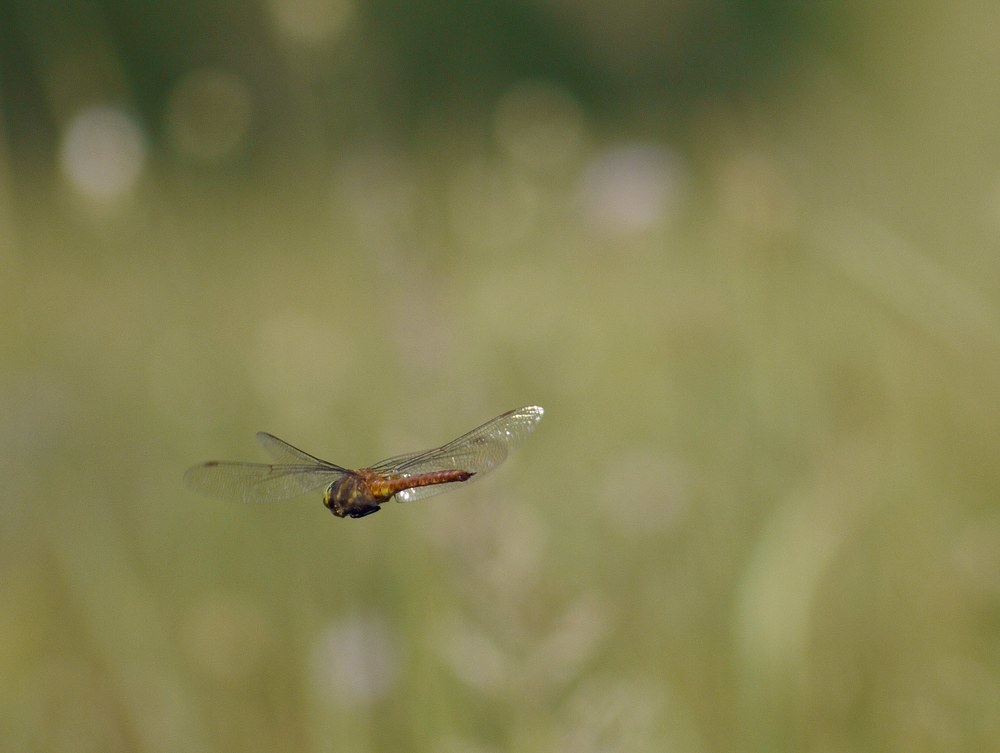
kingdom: Animalia
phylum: Arthropoda
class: Insecta
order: Odonata
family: Aeshnidae
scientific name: Aeshnidae
